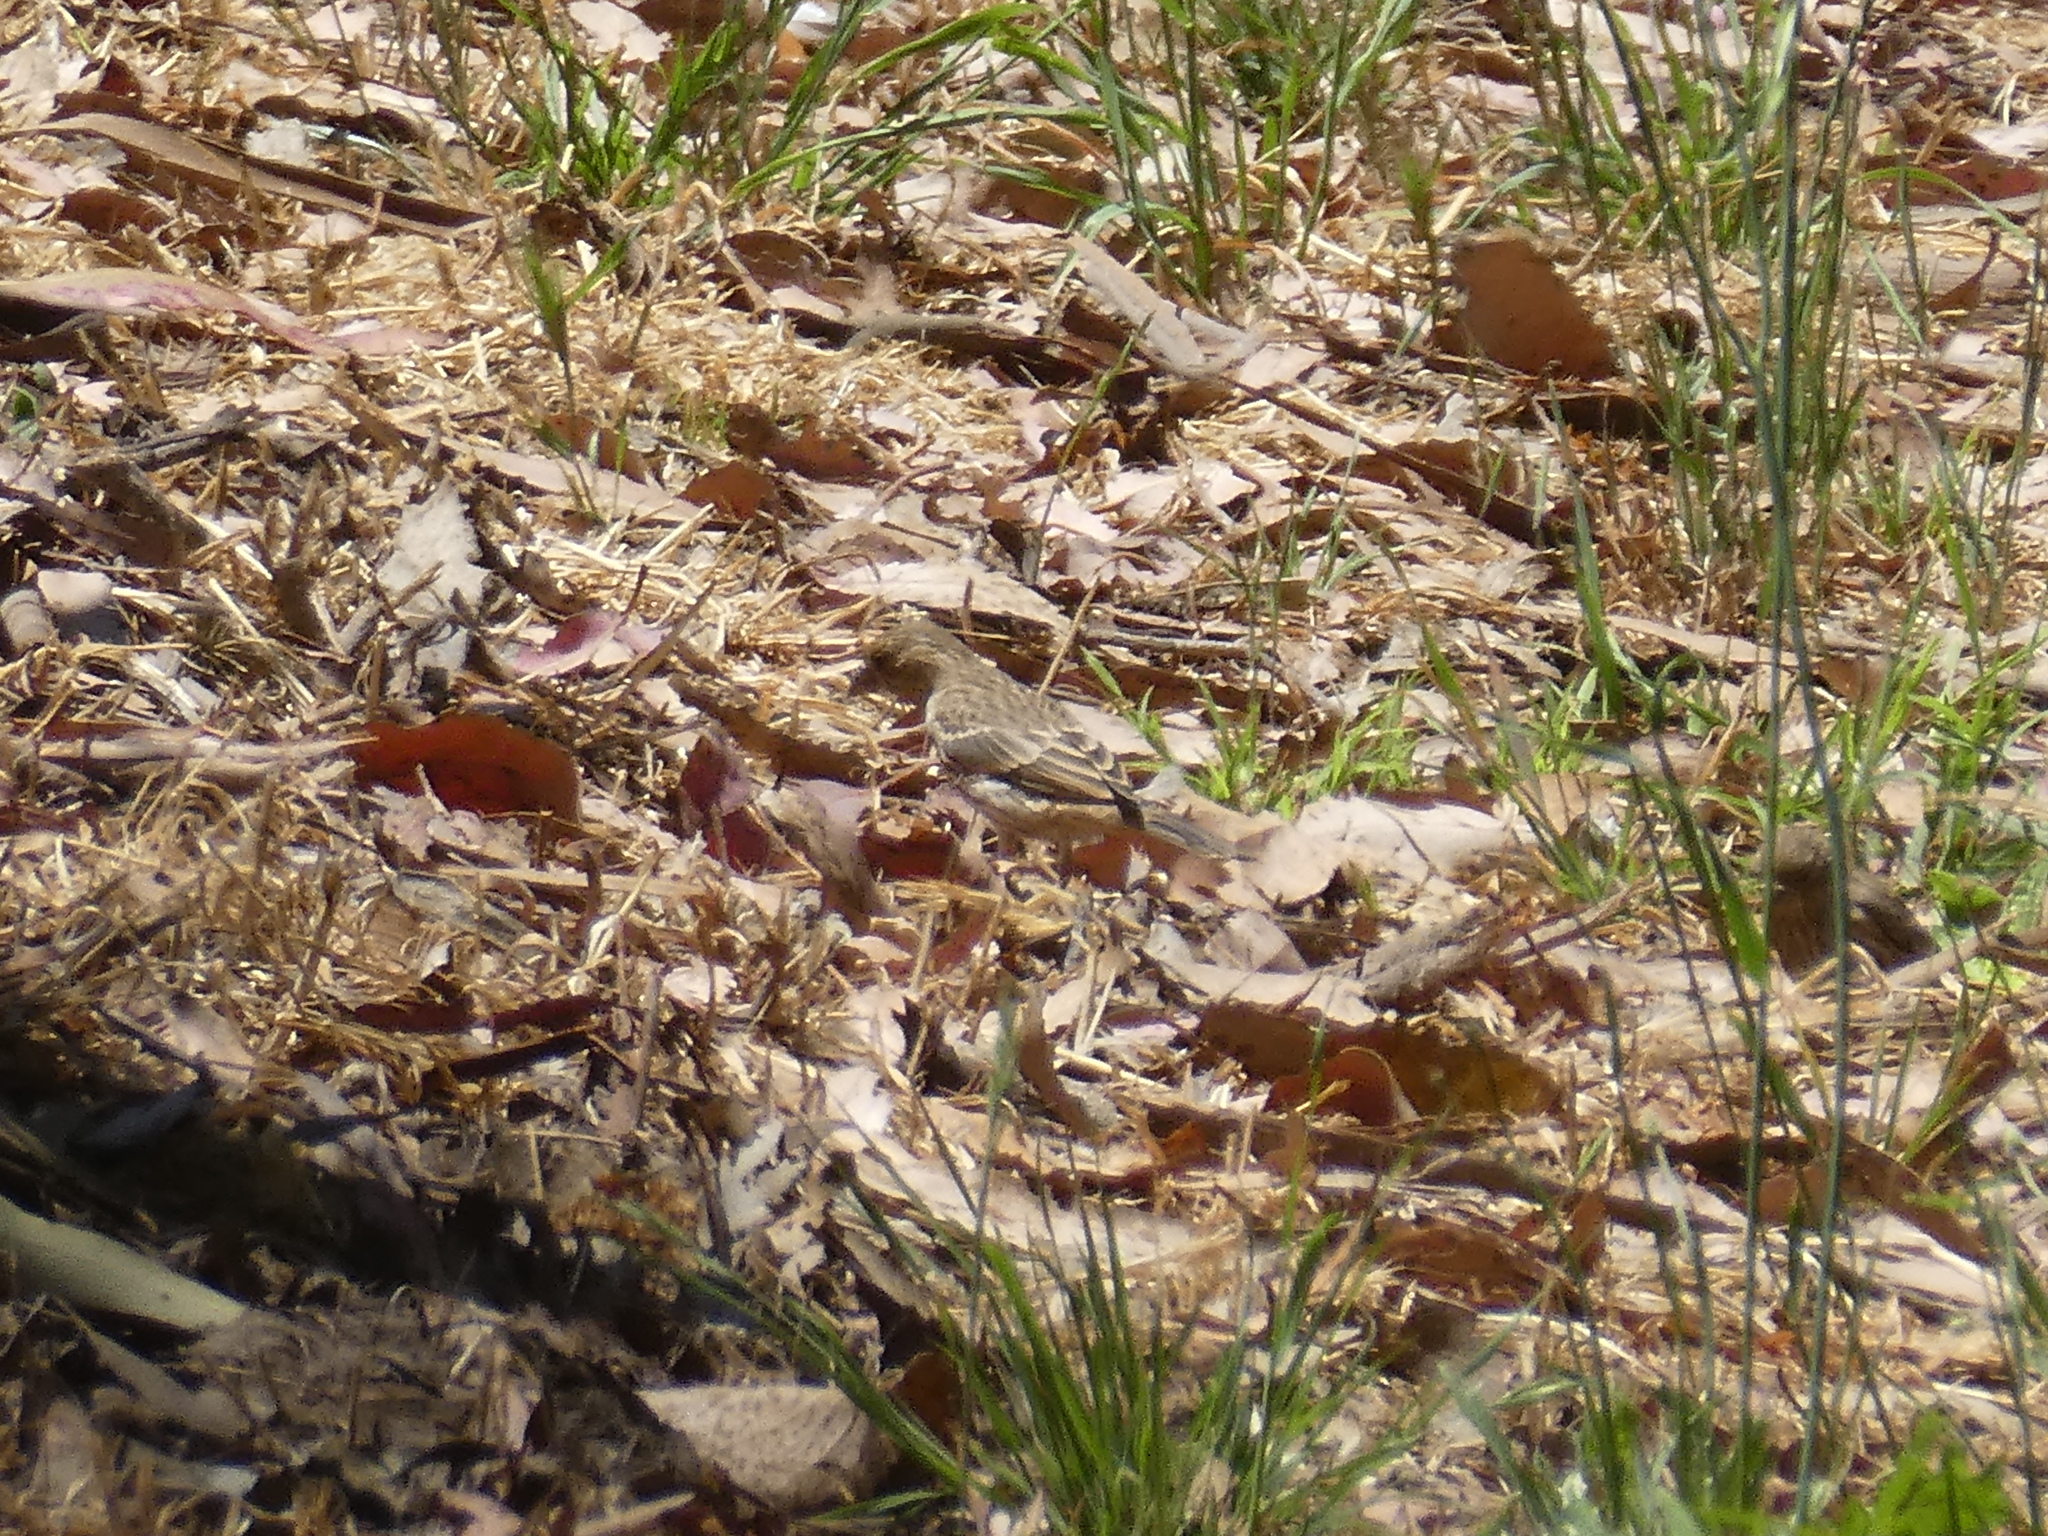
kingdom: Animalia
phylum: Chordata
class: Aves
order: Passeriformes
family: Fringillidae
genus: Haemorhous
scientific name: Haemorhous mexicanus
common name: House finch
